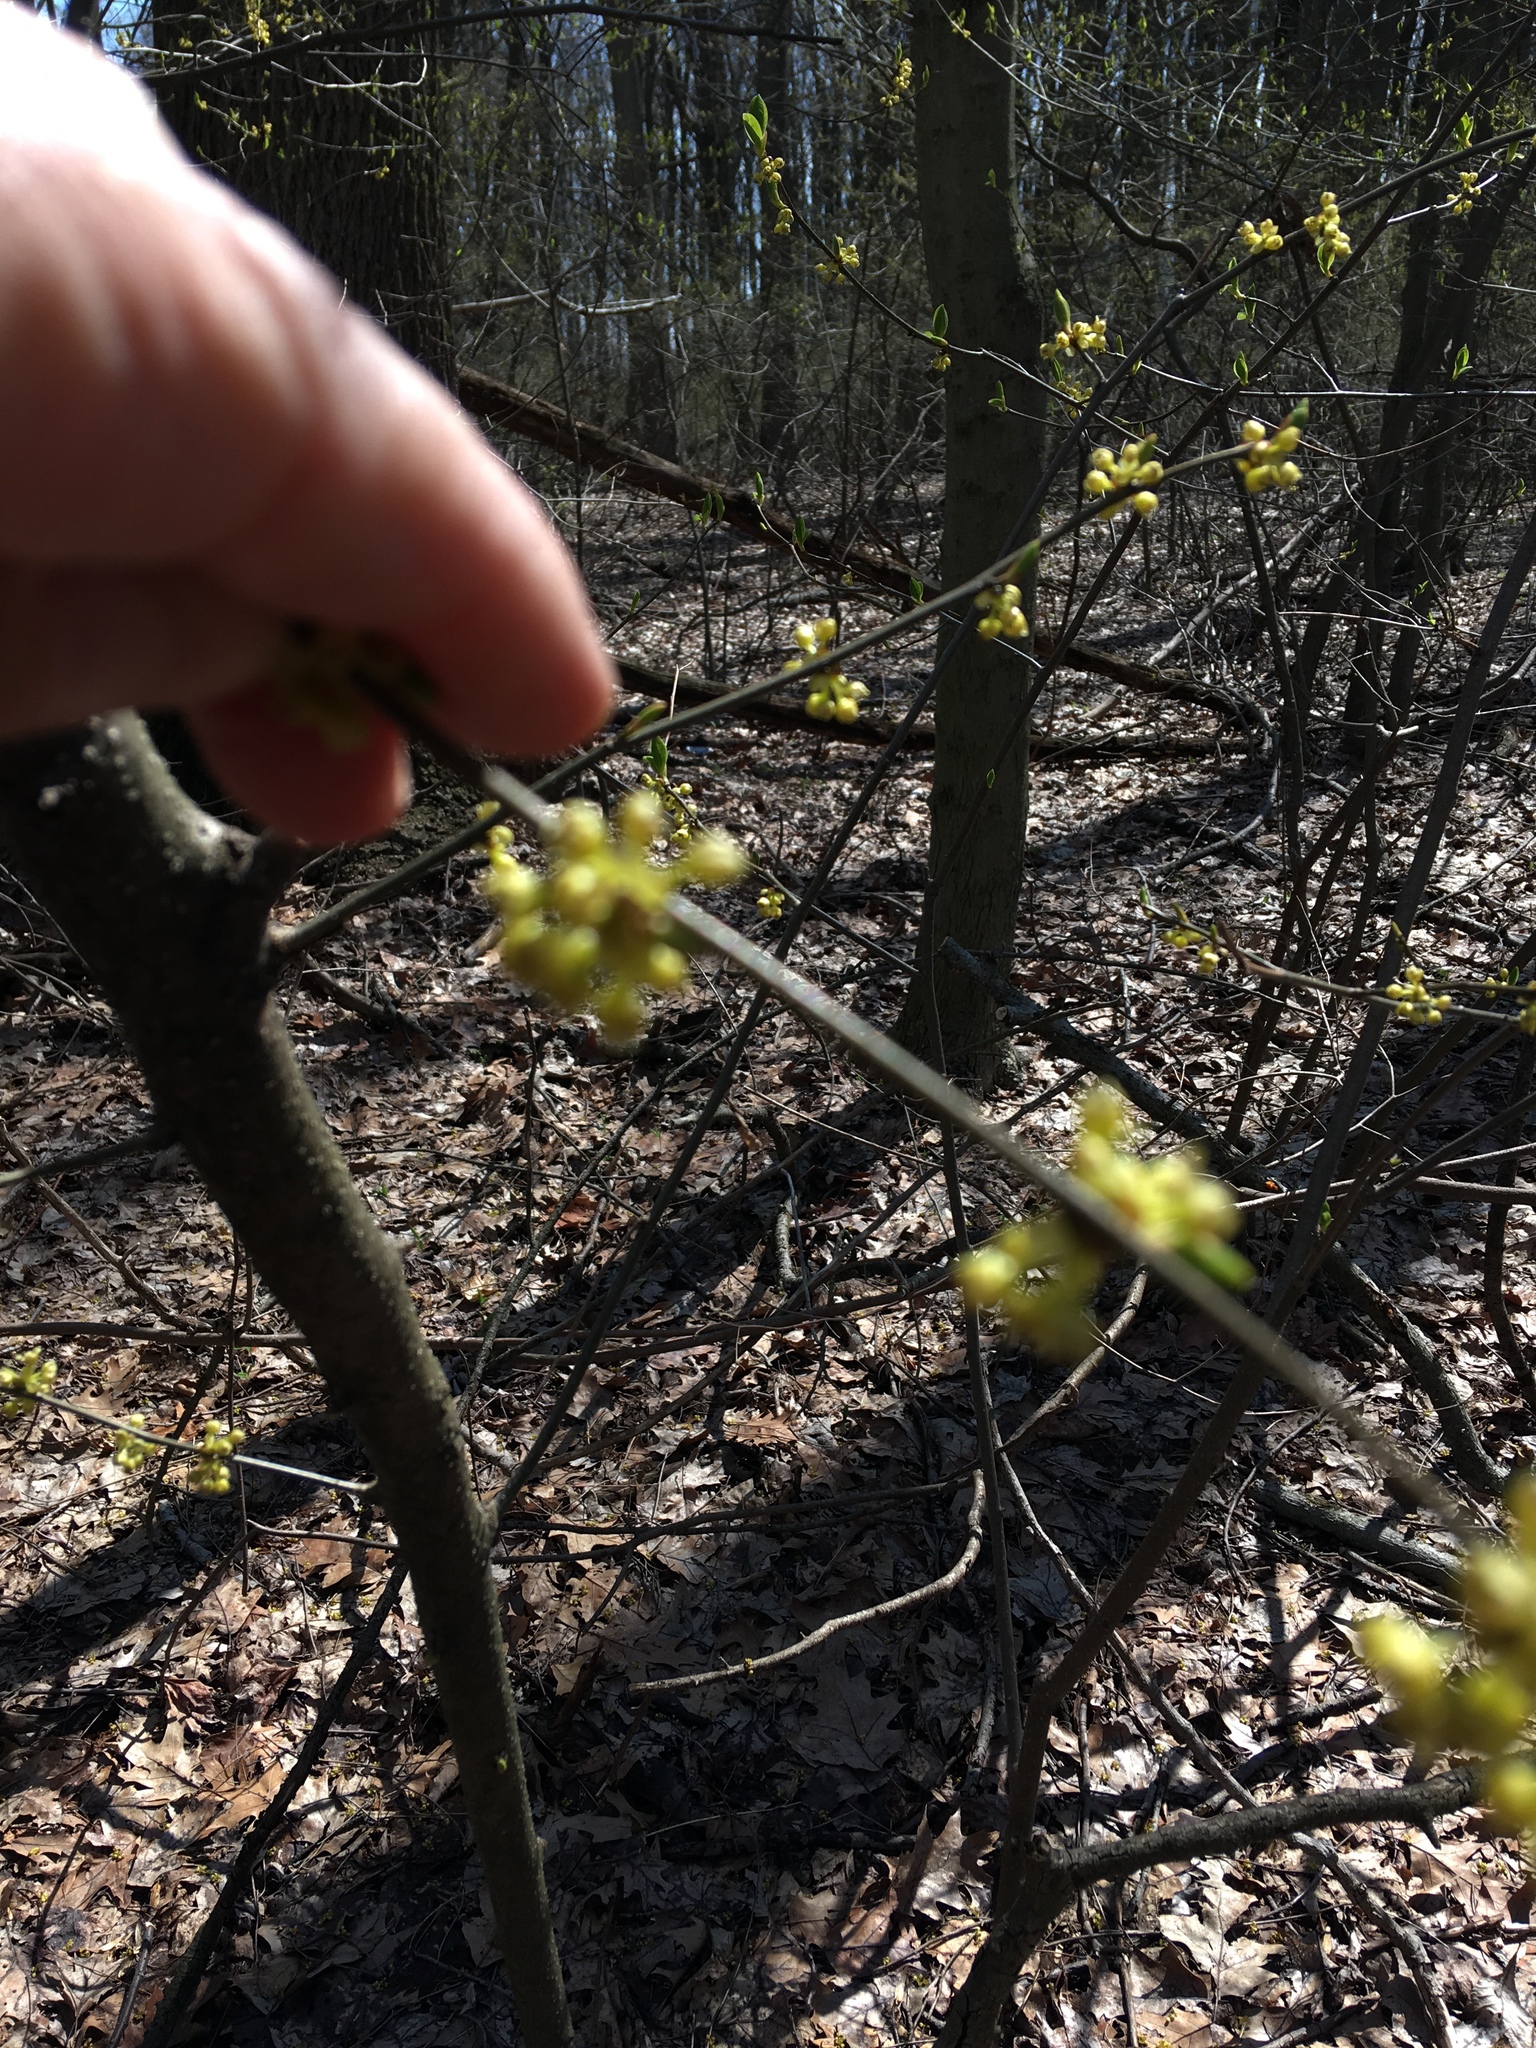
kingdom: Plantae
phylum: Tracheophyta
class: Magnoliopsida
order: Laurales
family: Lauraceae
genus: Lindera
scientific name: Lindera benzoin
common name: Spicebush
